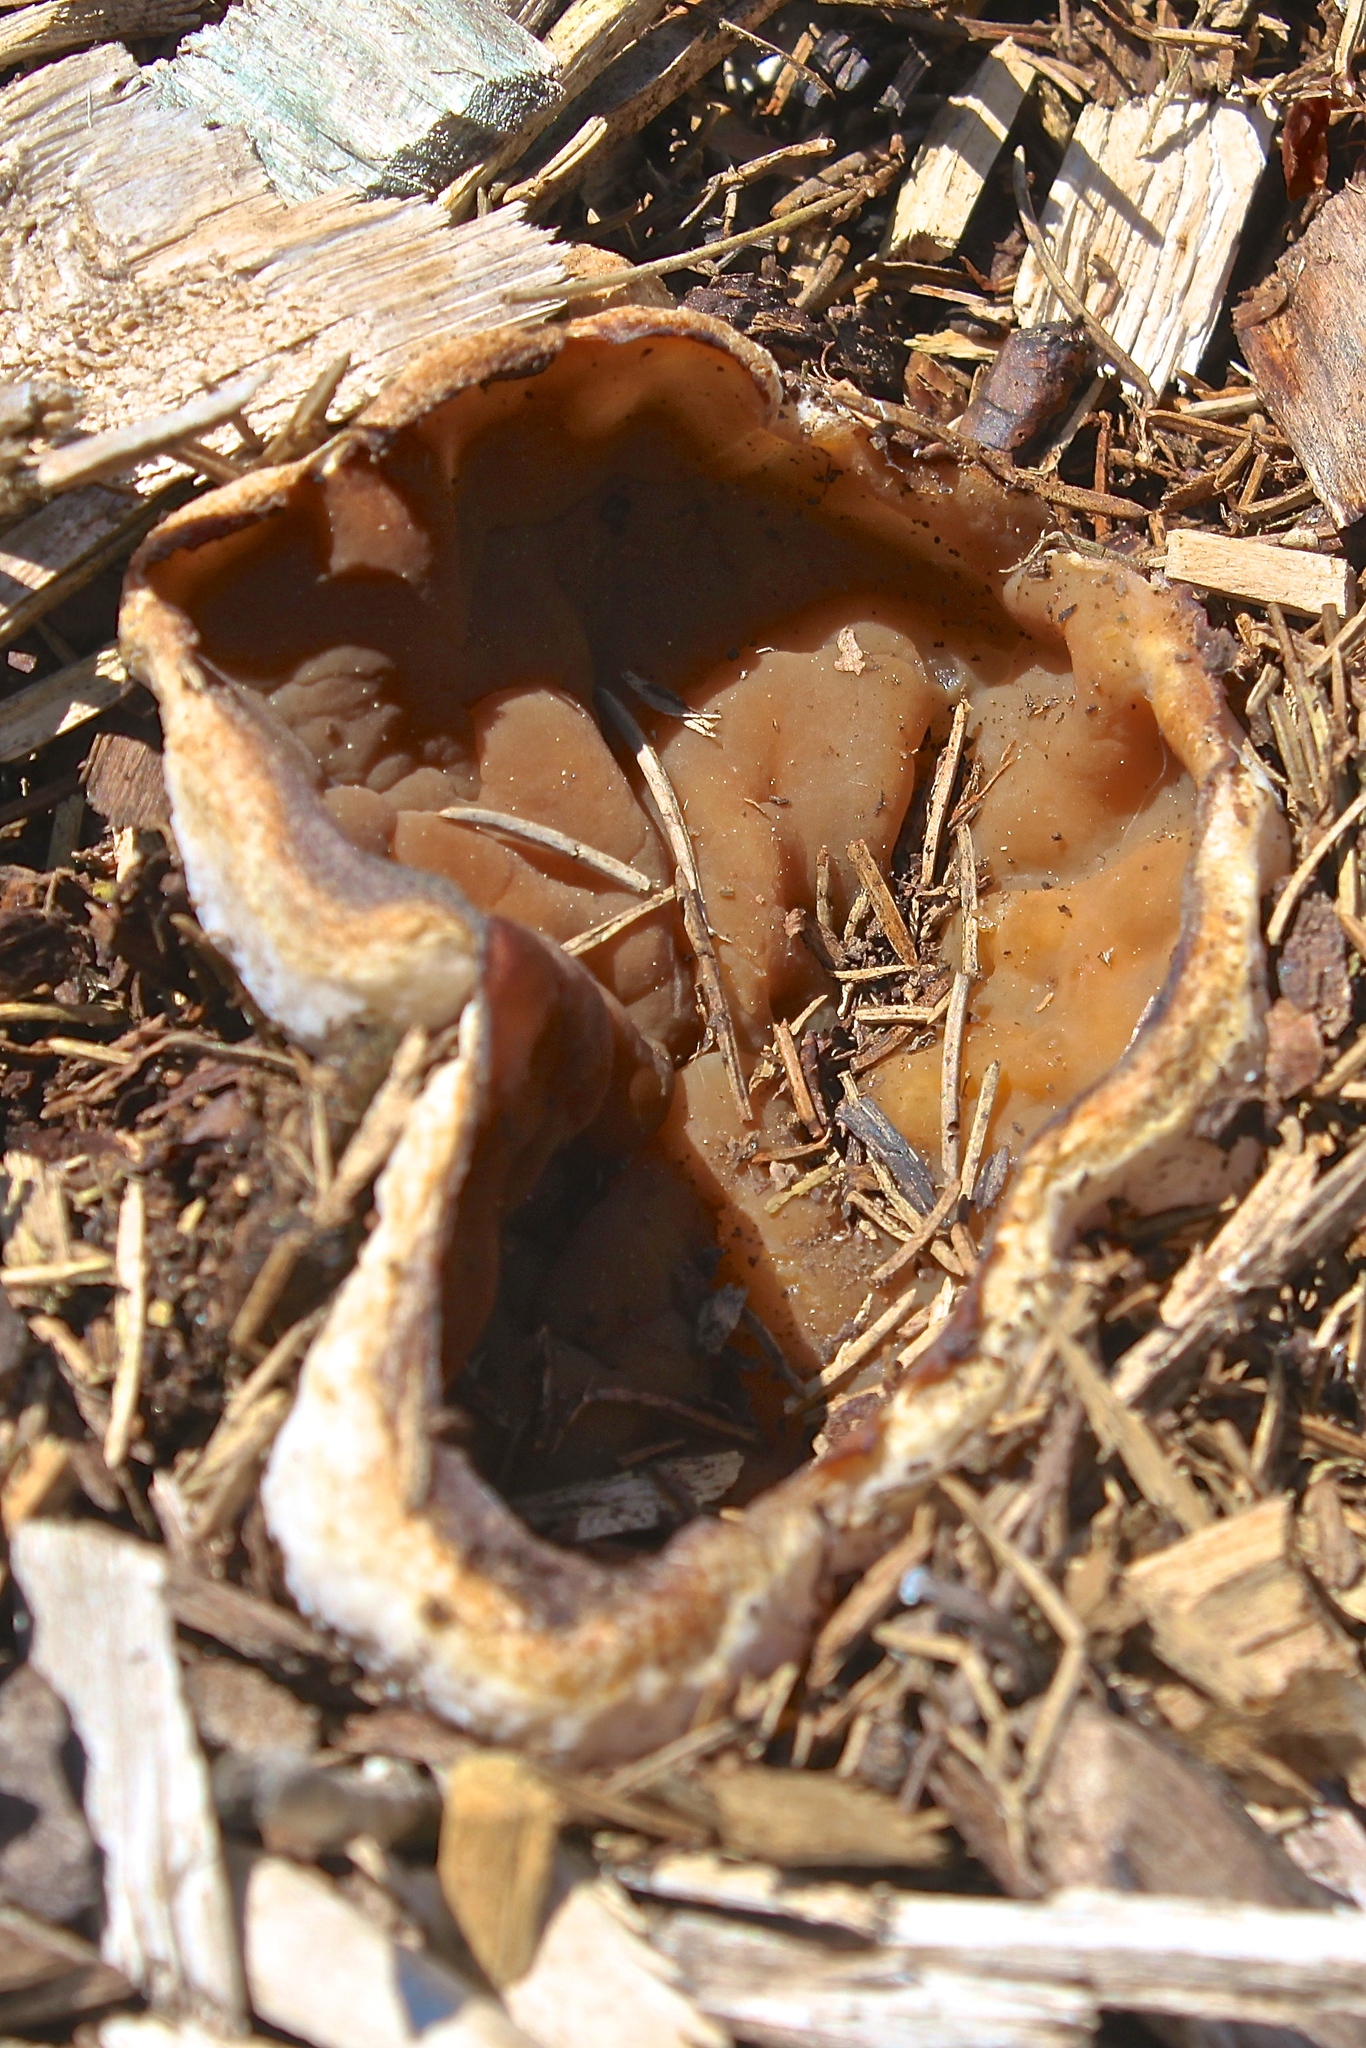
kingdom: Fungi
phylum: Ascomycota
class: Pezizomycetes
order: Pezizales
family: Morchellaceae
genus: Disciotis
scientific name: Disciotis venosa
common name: Bleach cup
